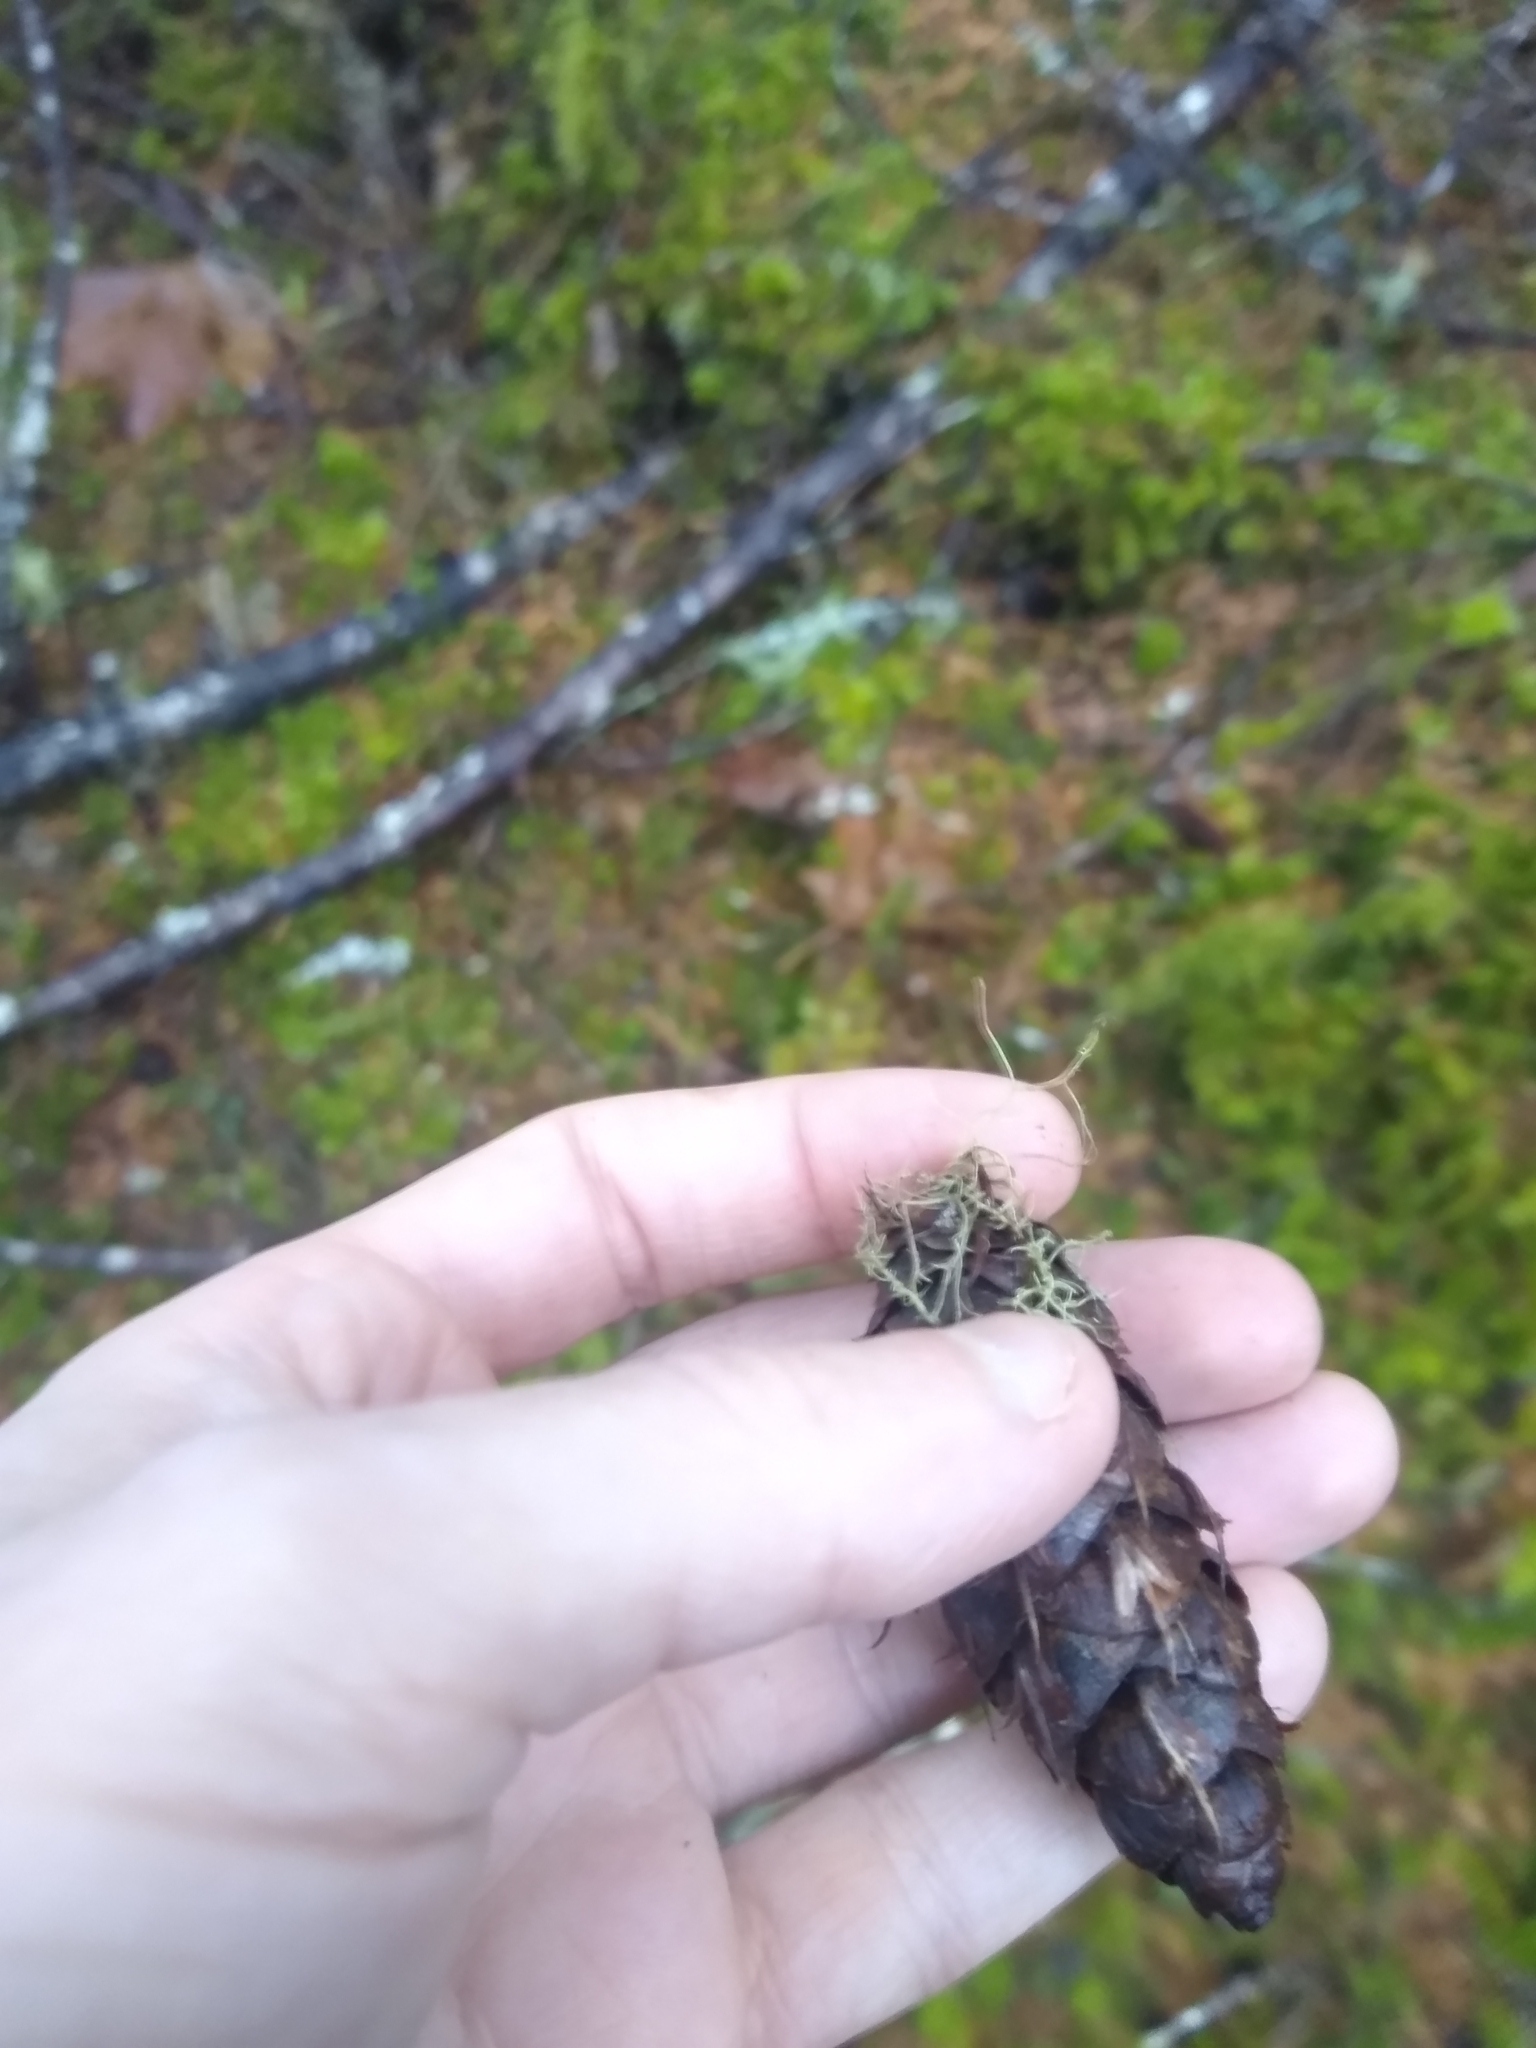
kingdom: Plantae
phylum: Tracheophyta
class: Pinopsida
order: Pinales
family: Pinaceae
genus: Pseudotsuga
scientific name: Pseudotsuga menziesii
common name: Douglas fir
